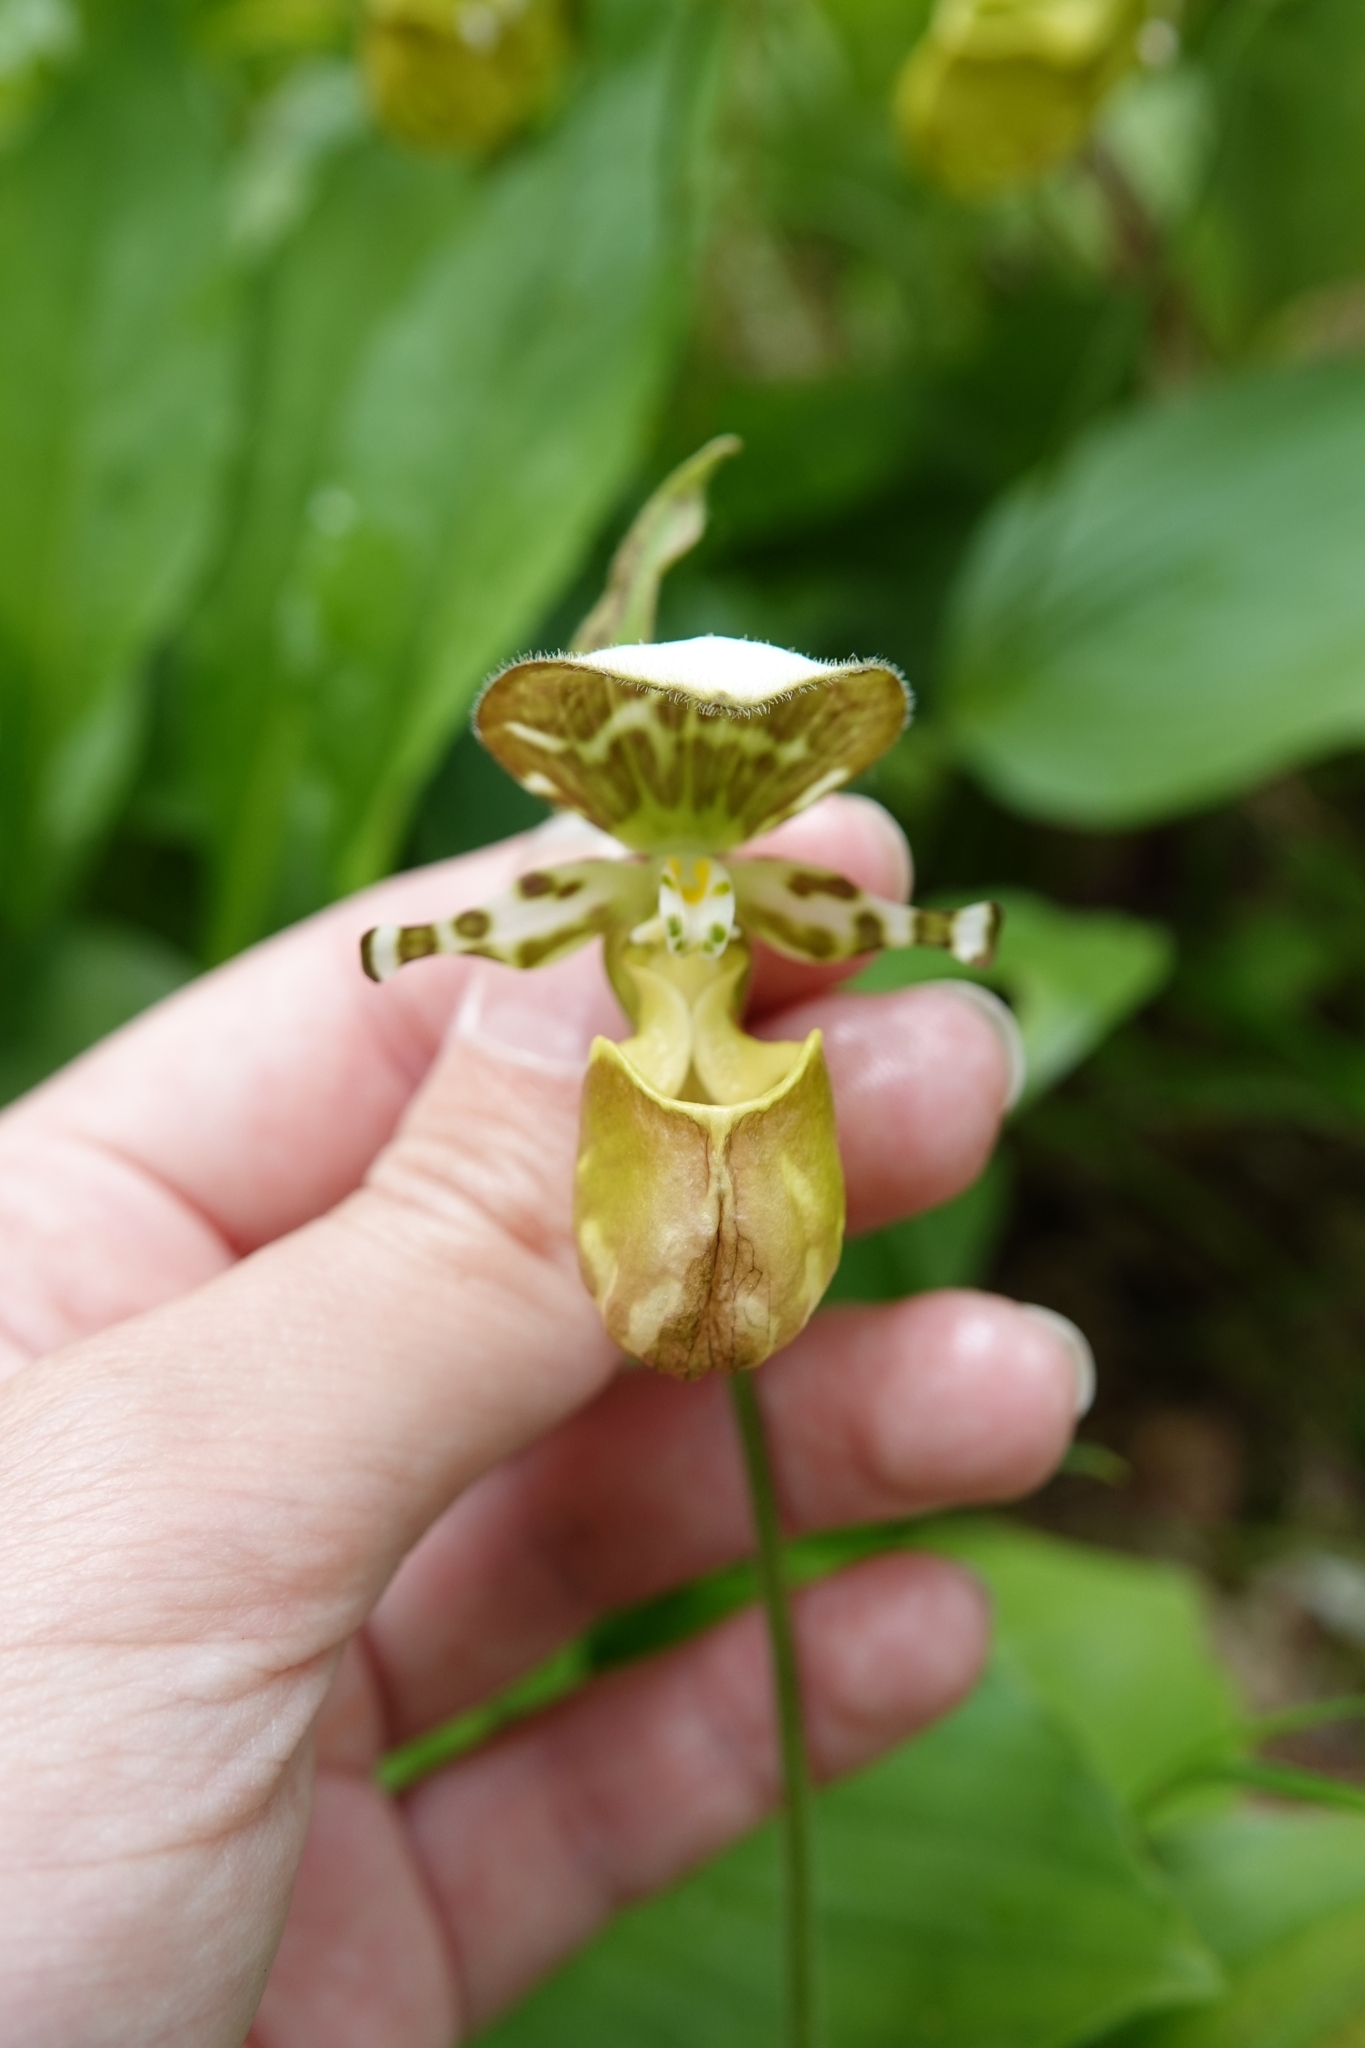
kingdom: Plantae
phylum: Tracheophyta
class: Liliopsida
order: Asparagales
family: Orchidaceae
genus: Cypripedium
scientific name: Cypripedium yatabeanum
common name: Spotted lady's slipper
